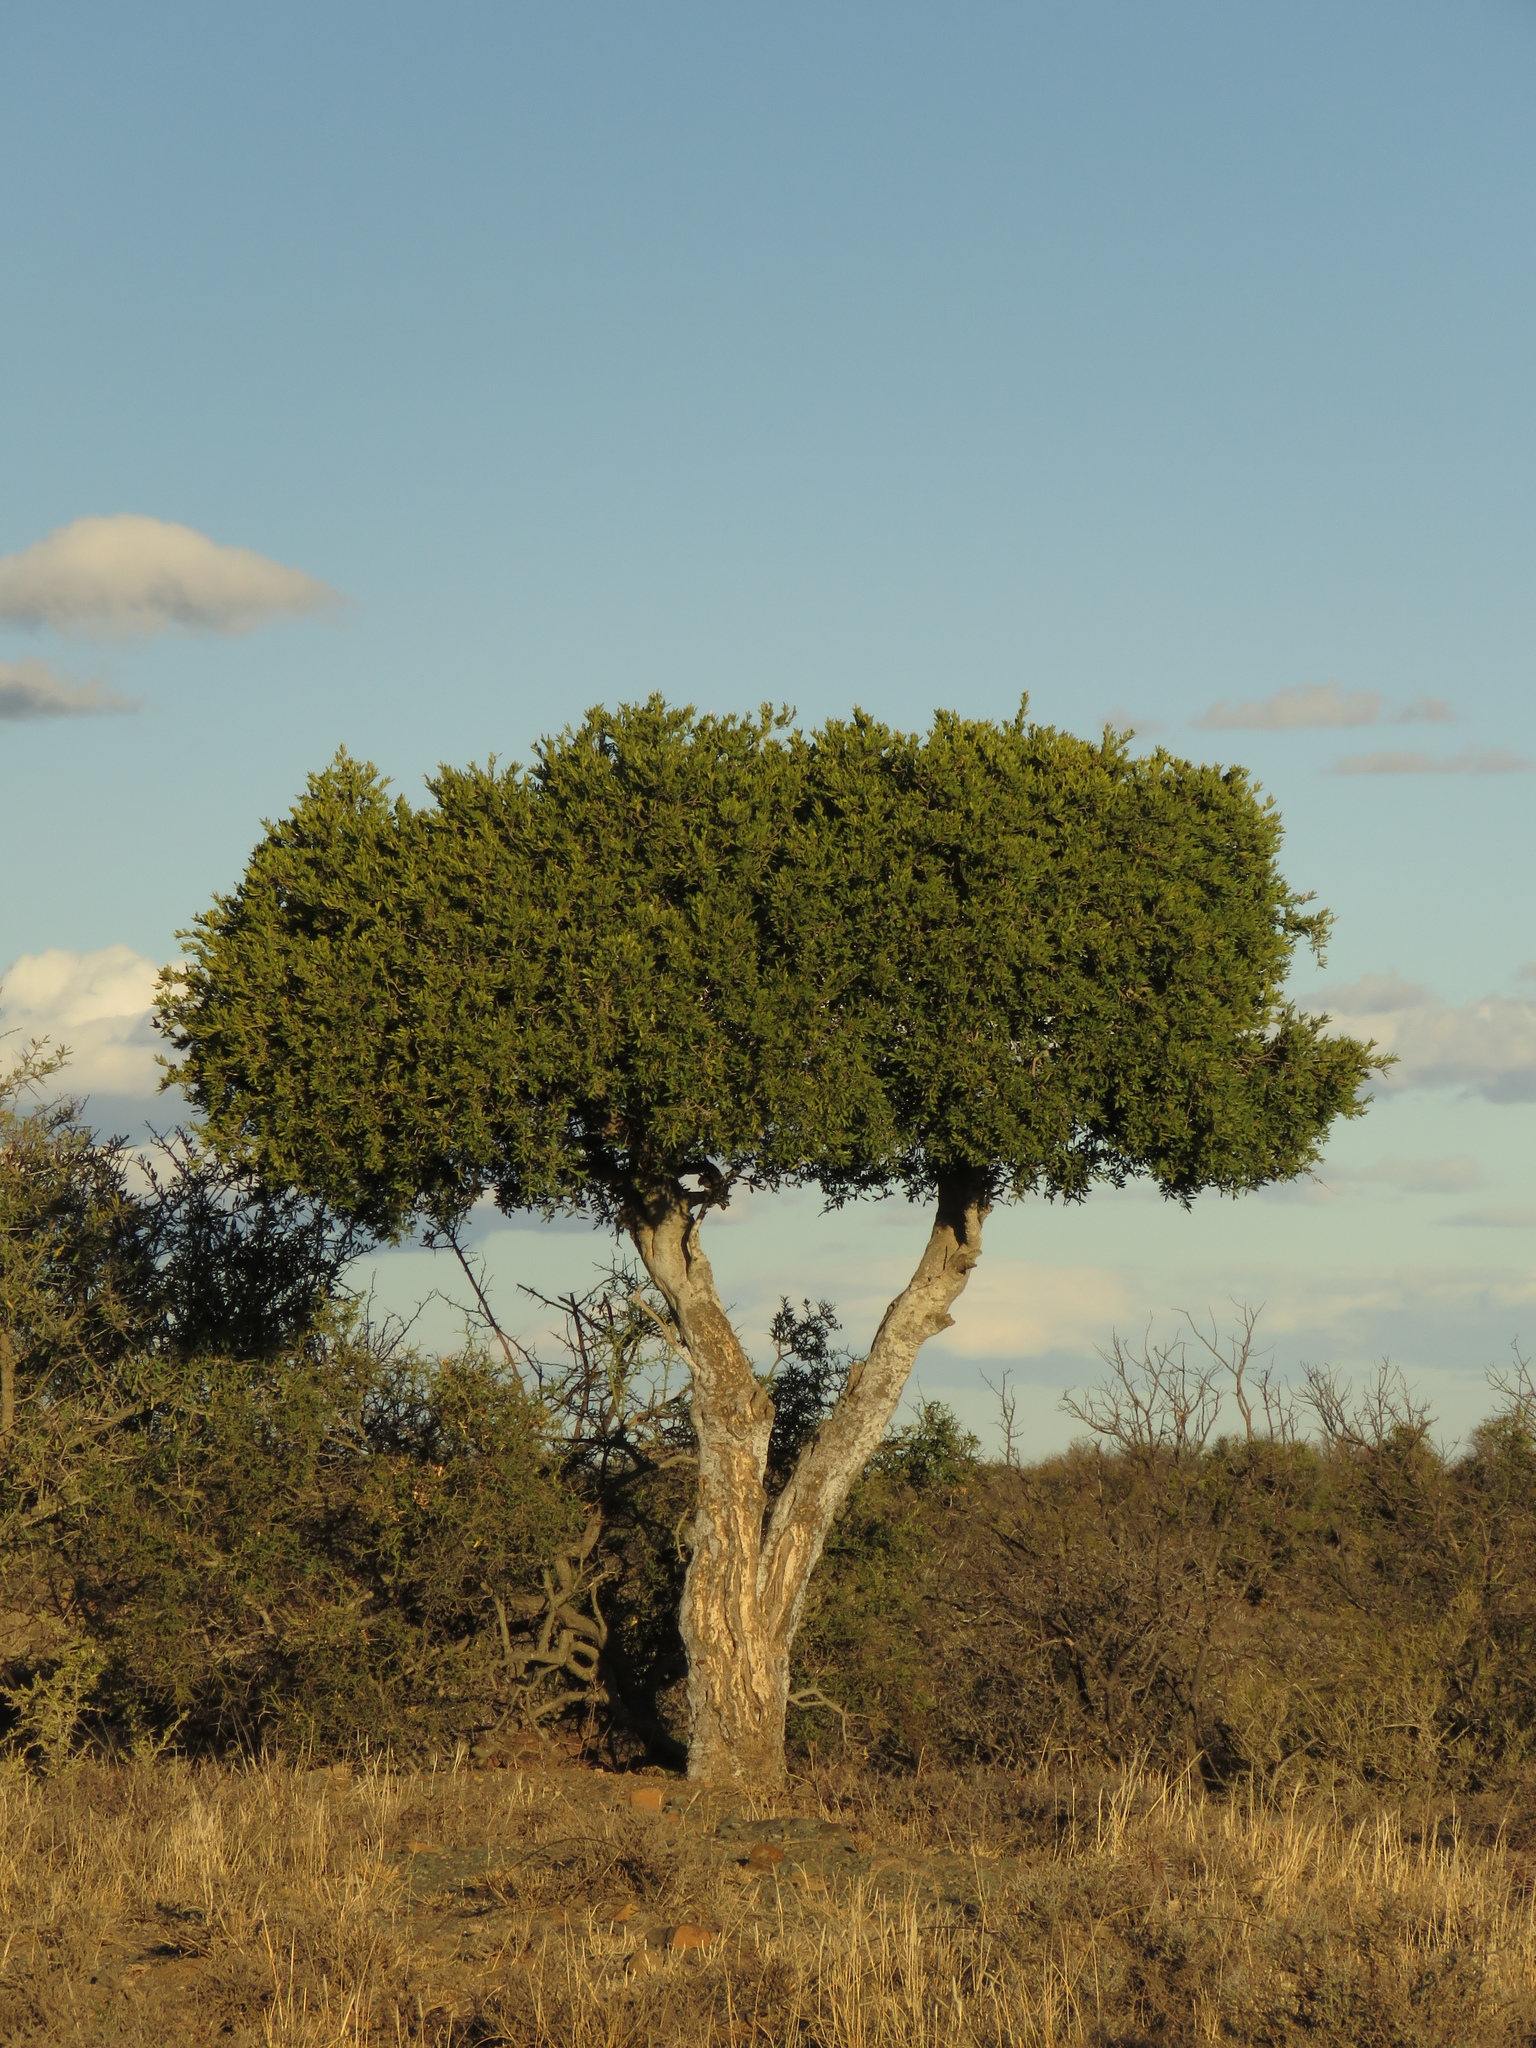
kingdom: Plantae
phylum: Tracheophyta
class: Magnoliopsida
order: Brassicales
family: Capparaceae
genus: Boscia
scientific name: Boscia oleoides
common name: Karoo shepherd tree
